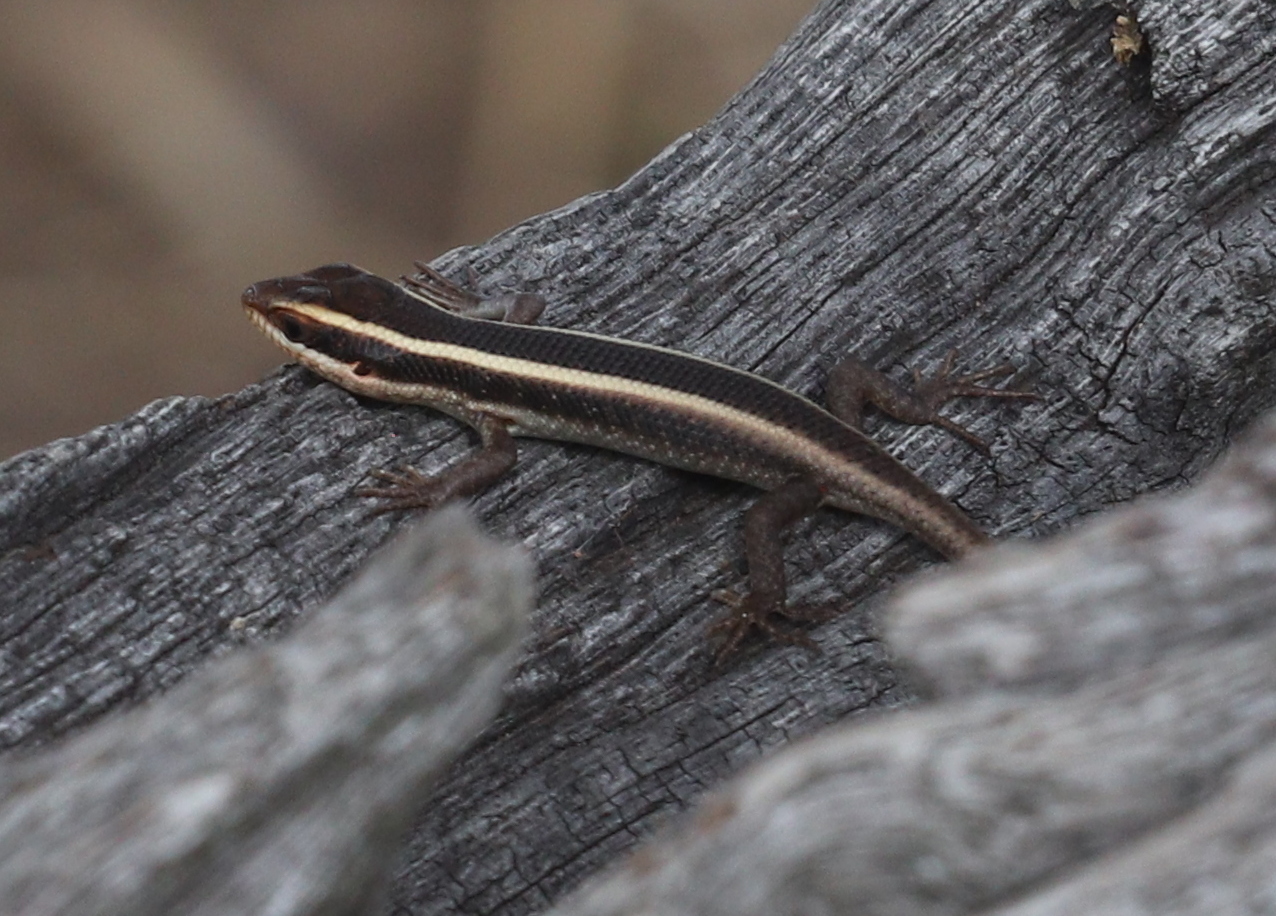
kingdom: Animalia
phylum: Chordata
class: Squamata
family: Scincidae
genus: Trachylepis
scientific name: Trachylepis striata
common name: African striped mabuya
